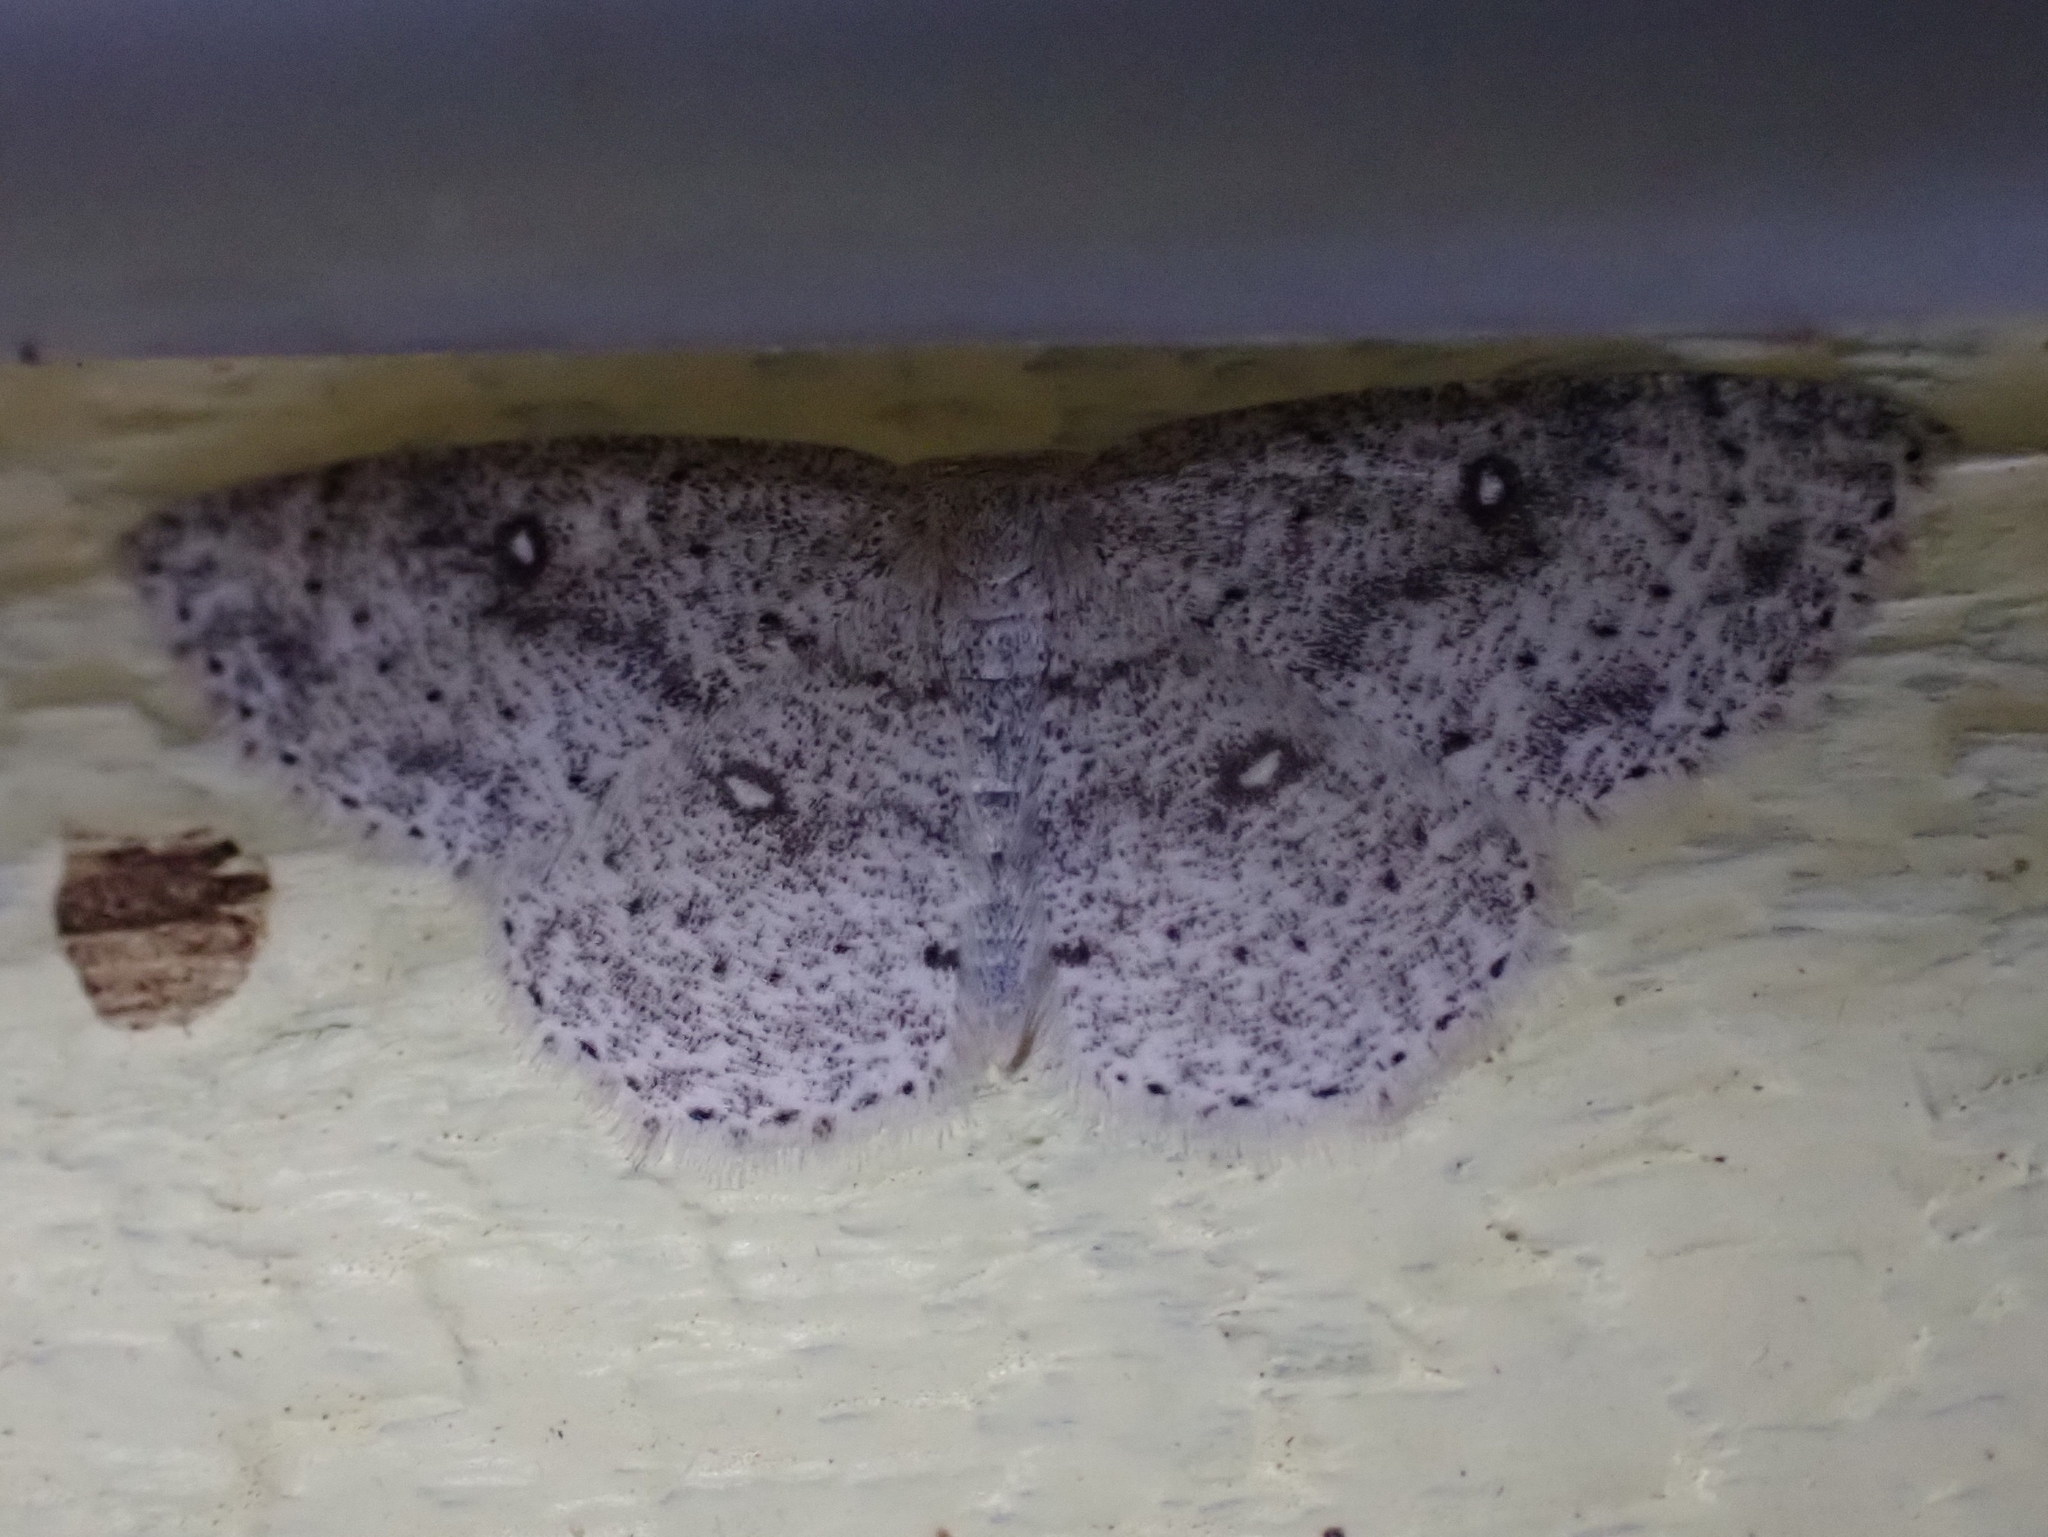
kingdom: Animalia
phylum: Arthropoda
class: Insecta
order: Lepidoptera
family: Geometridae
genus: Cyclophora
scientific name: Cyclophora pendulinaria
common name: Sweet fern geometer
